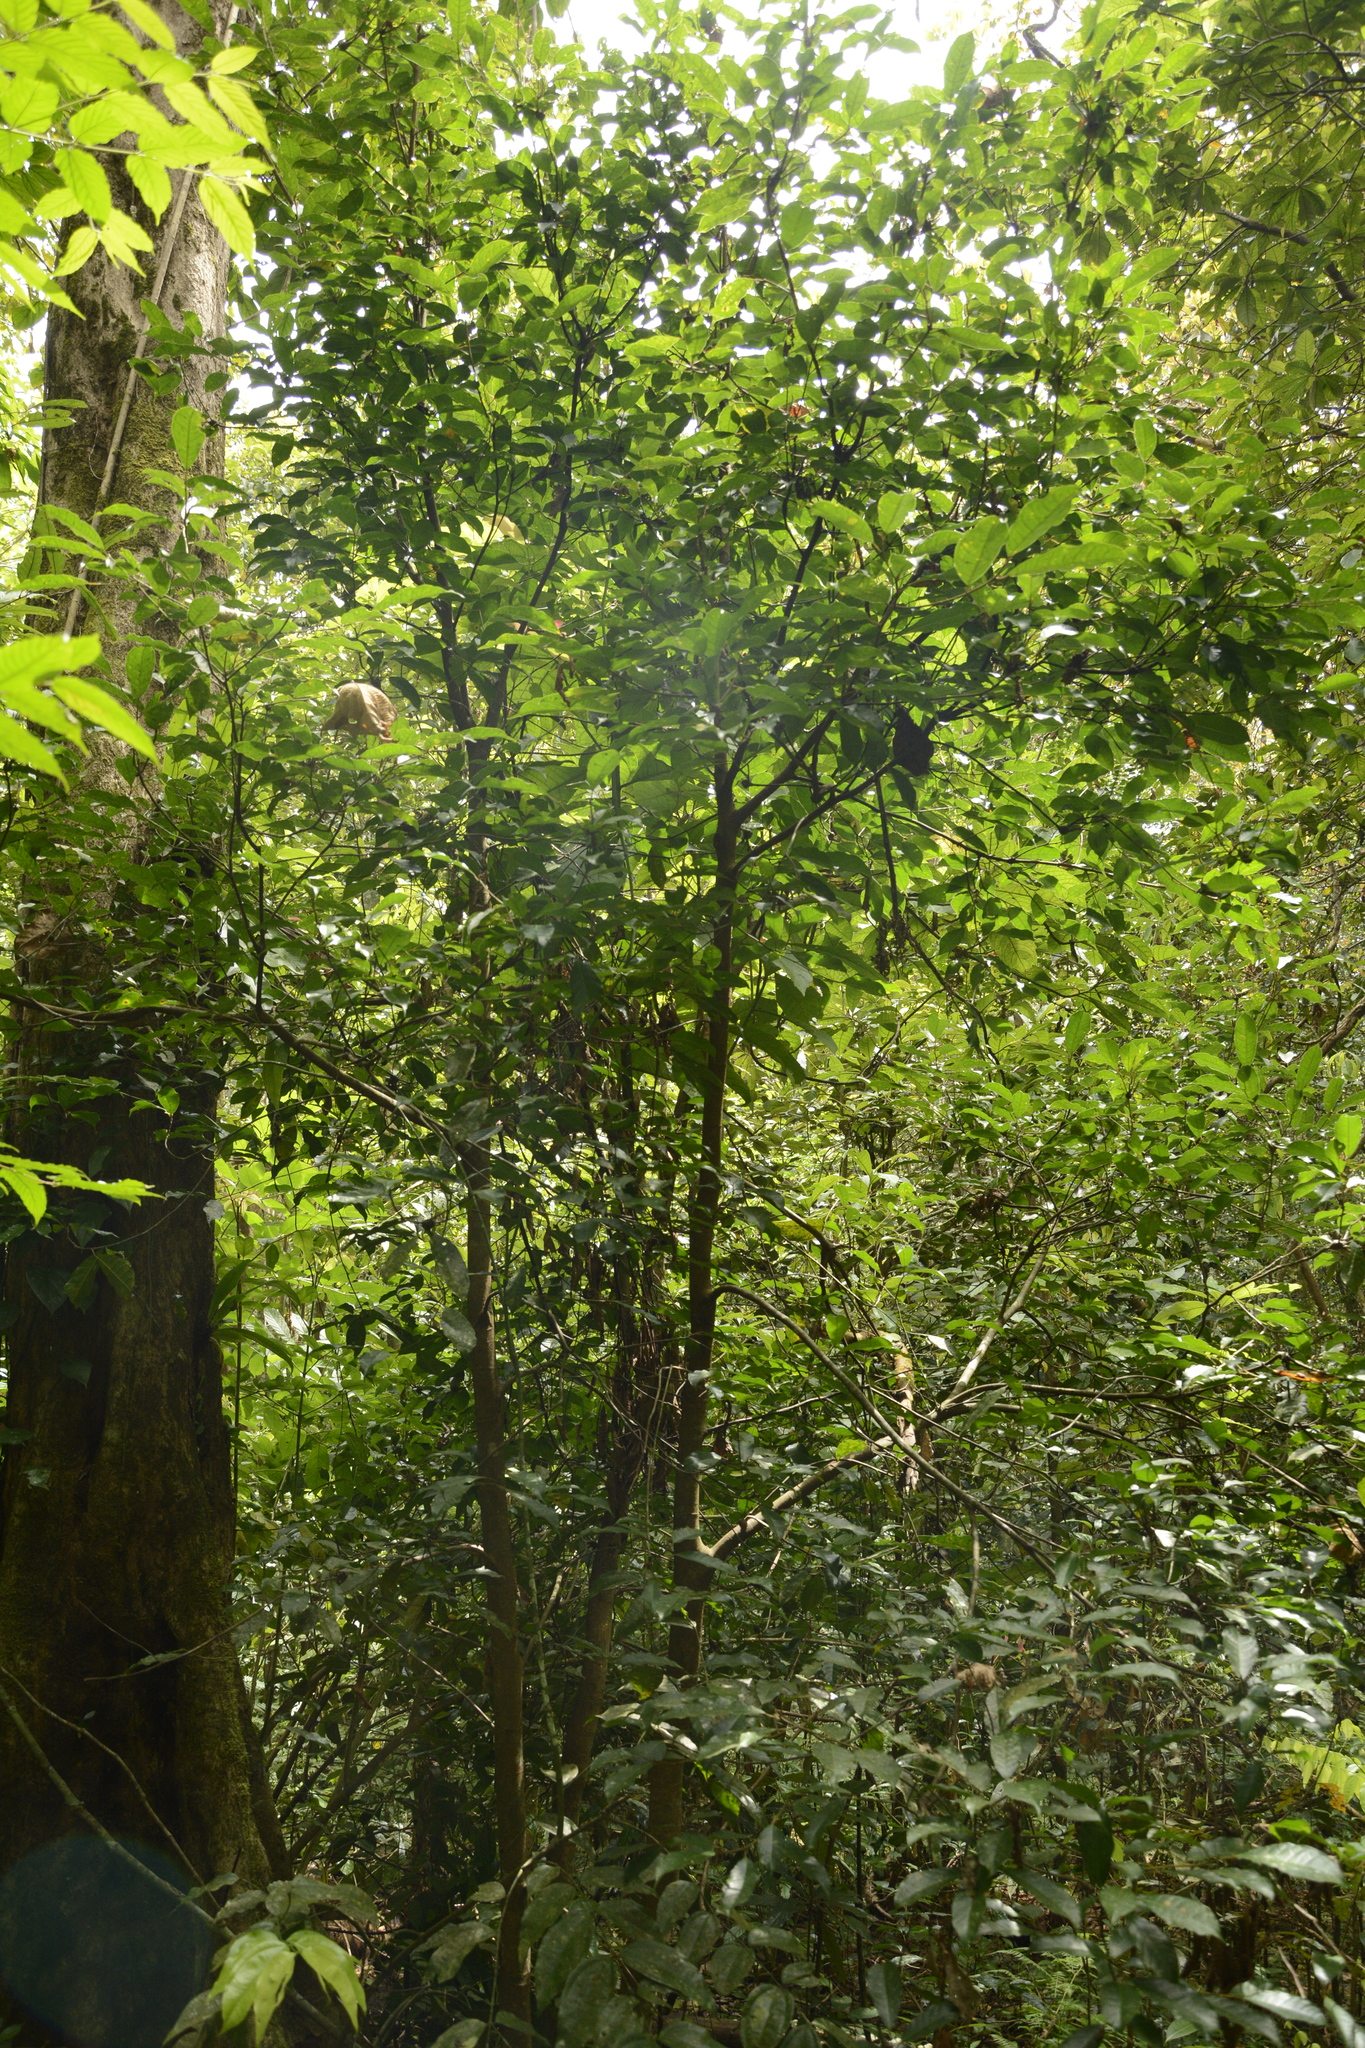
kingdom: Plantae
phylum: Tracheophyta
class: Magnoliopsida
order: Rosales
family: Moraceae
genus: Ficus
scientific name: Ficus nervosa
